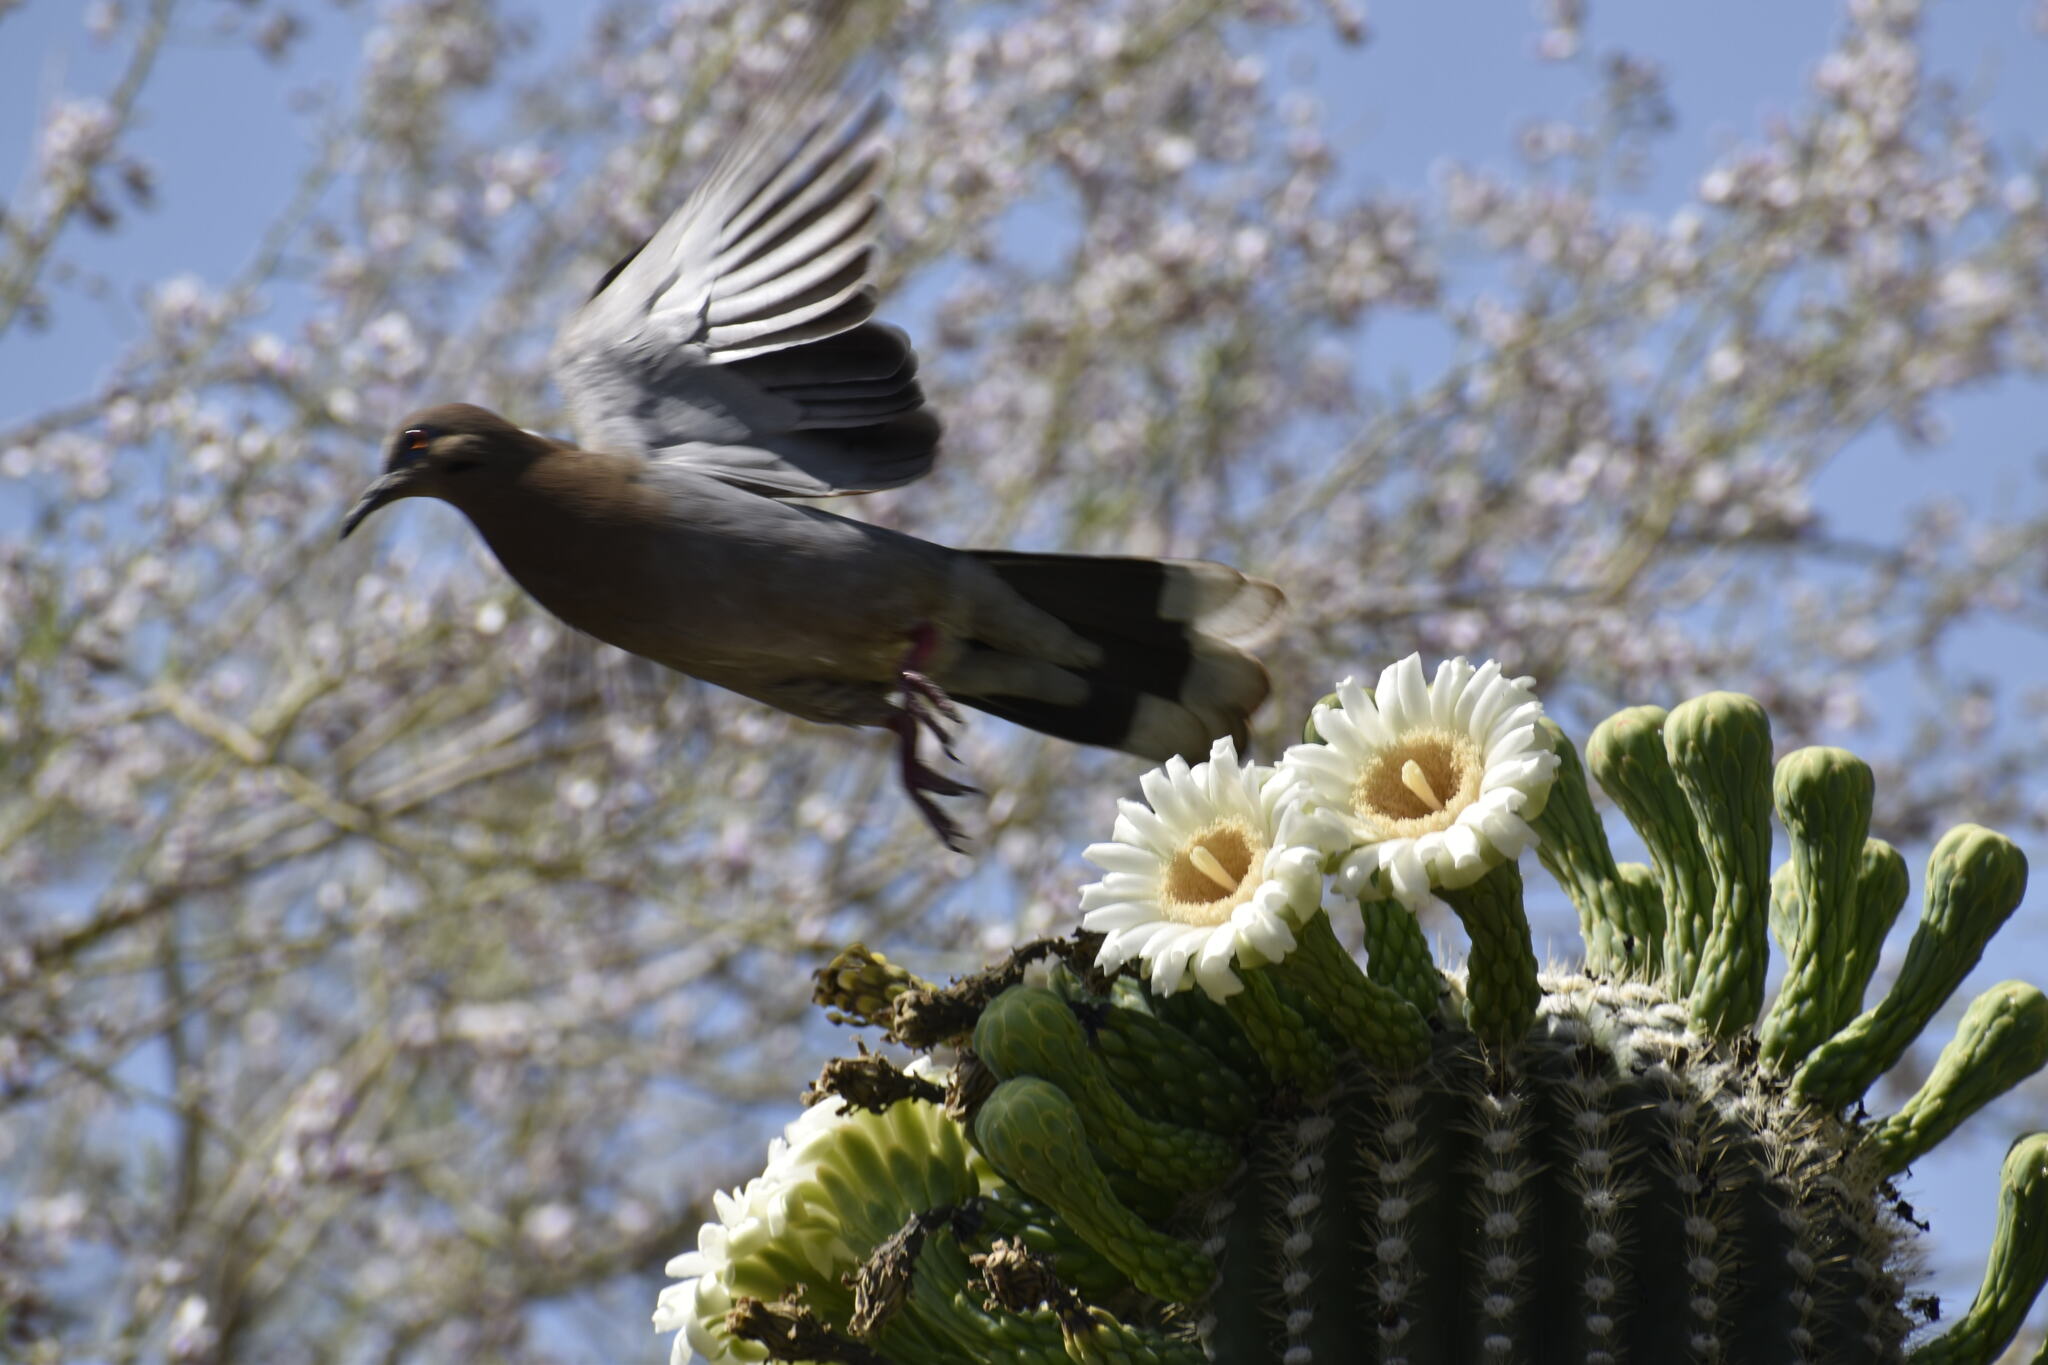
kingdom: Animalia
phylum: Chordata
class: Aves
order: Columbiformes
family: Columbidae
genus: Zenaida
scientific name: Zenaida asiatica
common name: White-winged dove
